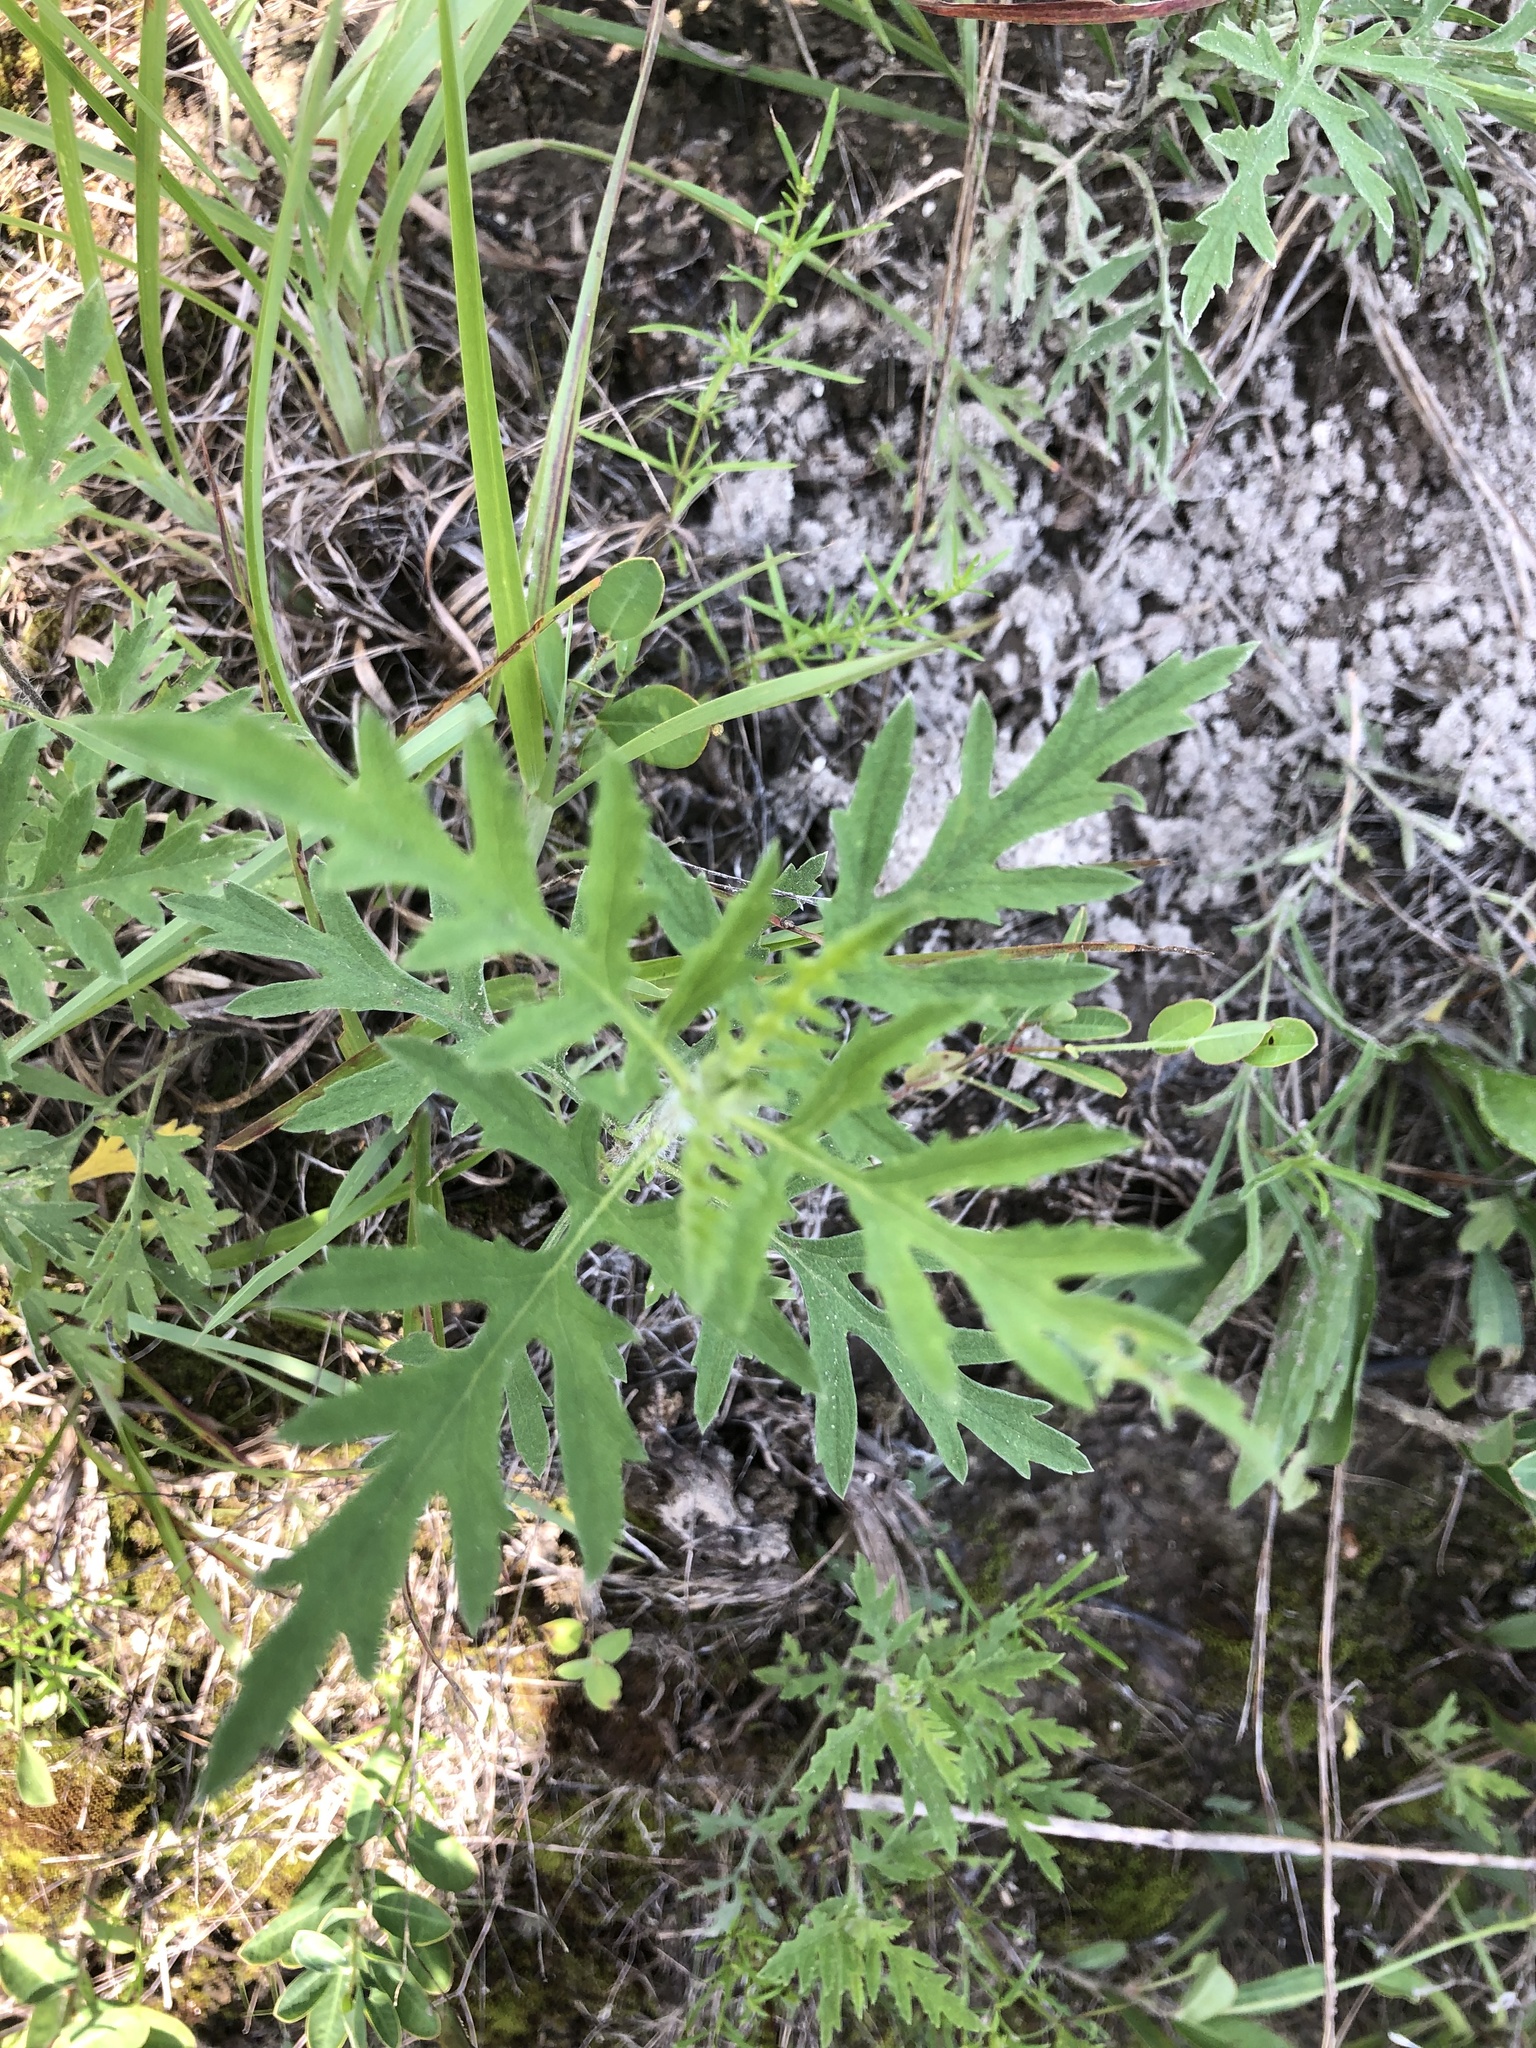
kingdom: Plantae
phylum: Tracheophyta
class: Magnoliopsida
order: Asterales
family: Asteraceae
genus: Ambrosia
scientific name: Ambrosia psilostachya
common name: Perennial ragweed
